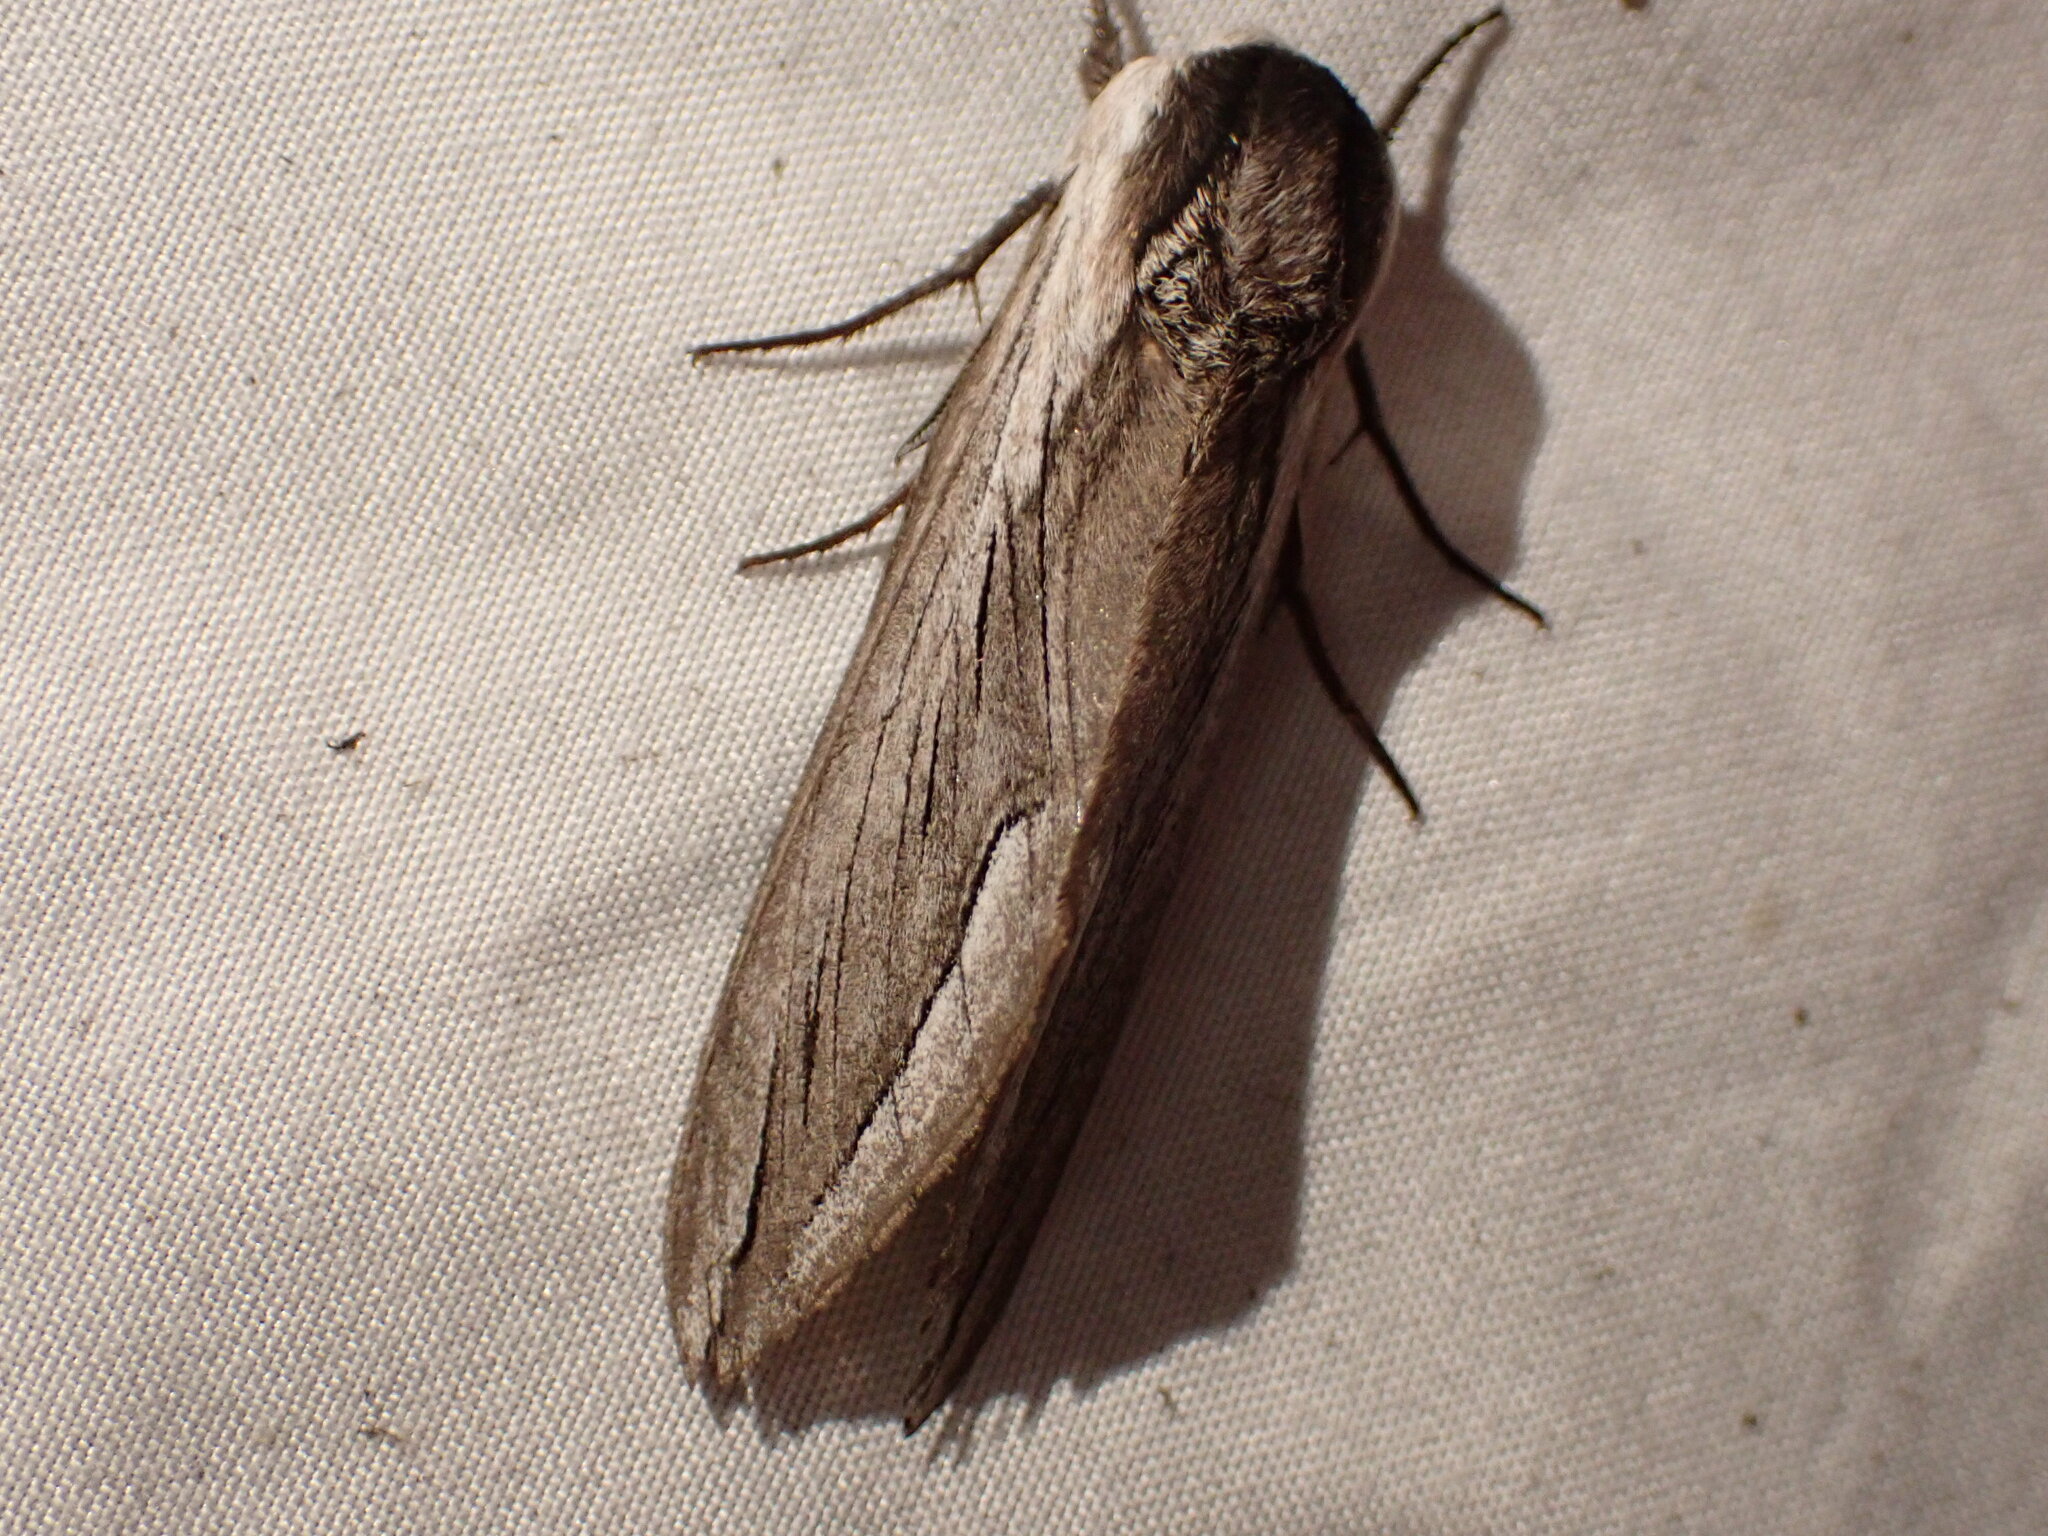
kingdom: Animalia
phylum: Arthropoda
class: Insecta
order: Lepidoptera
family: Sphingidae
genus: Sphinx
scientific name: Sphinx vashti
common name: Snowberry sphinx
